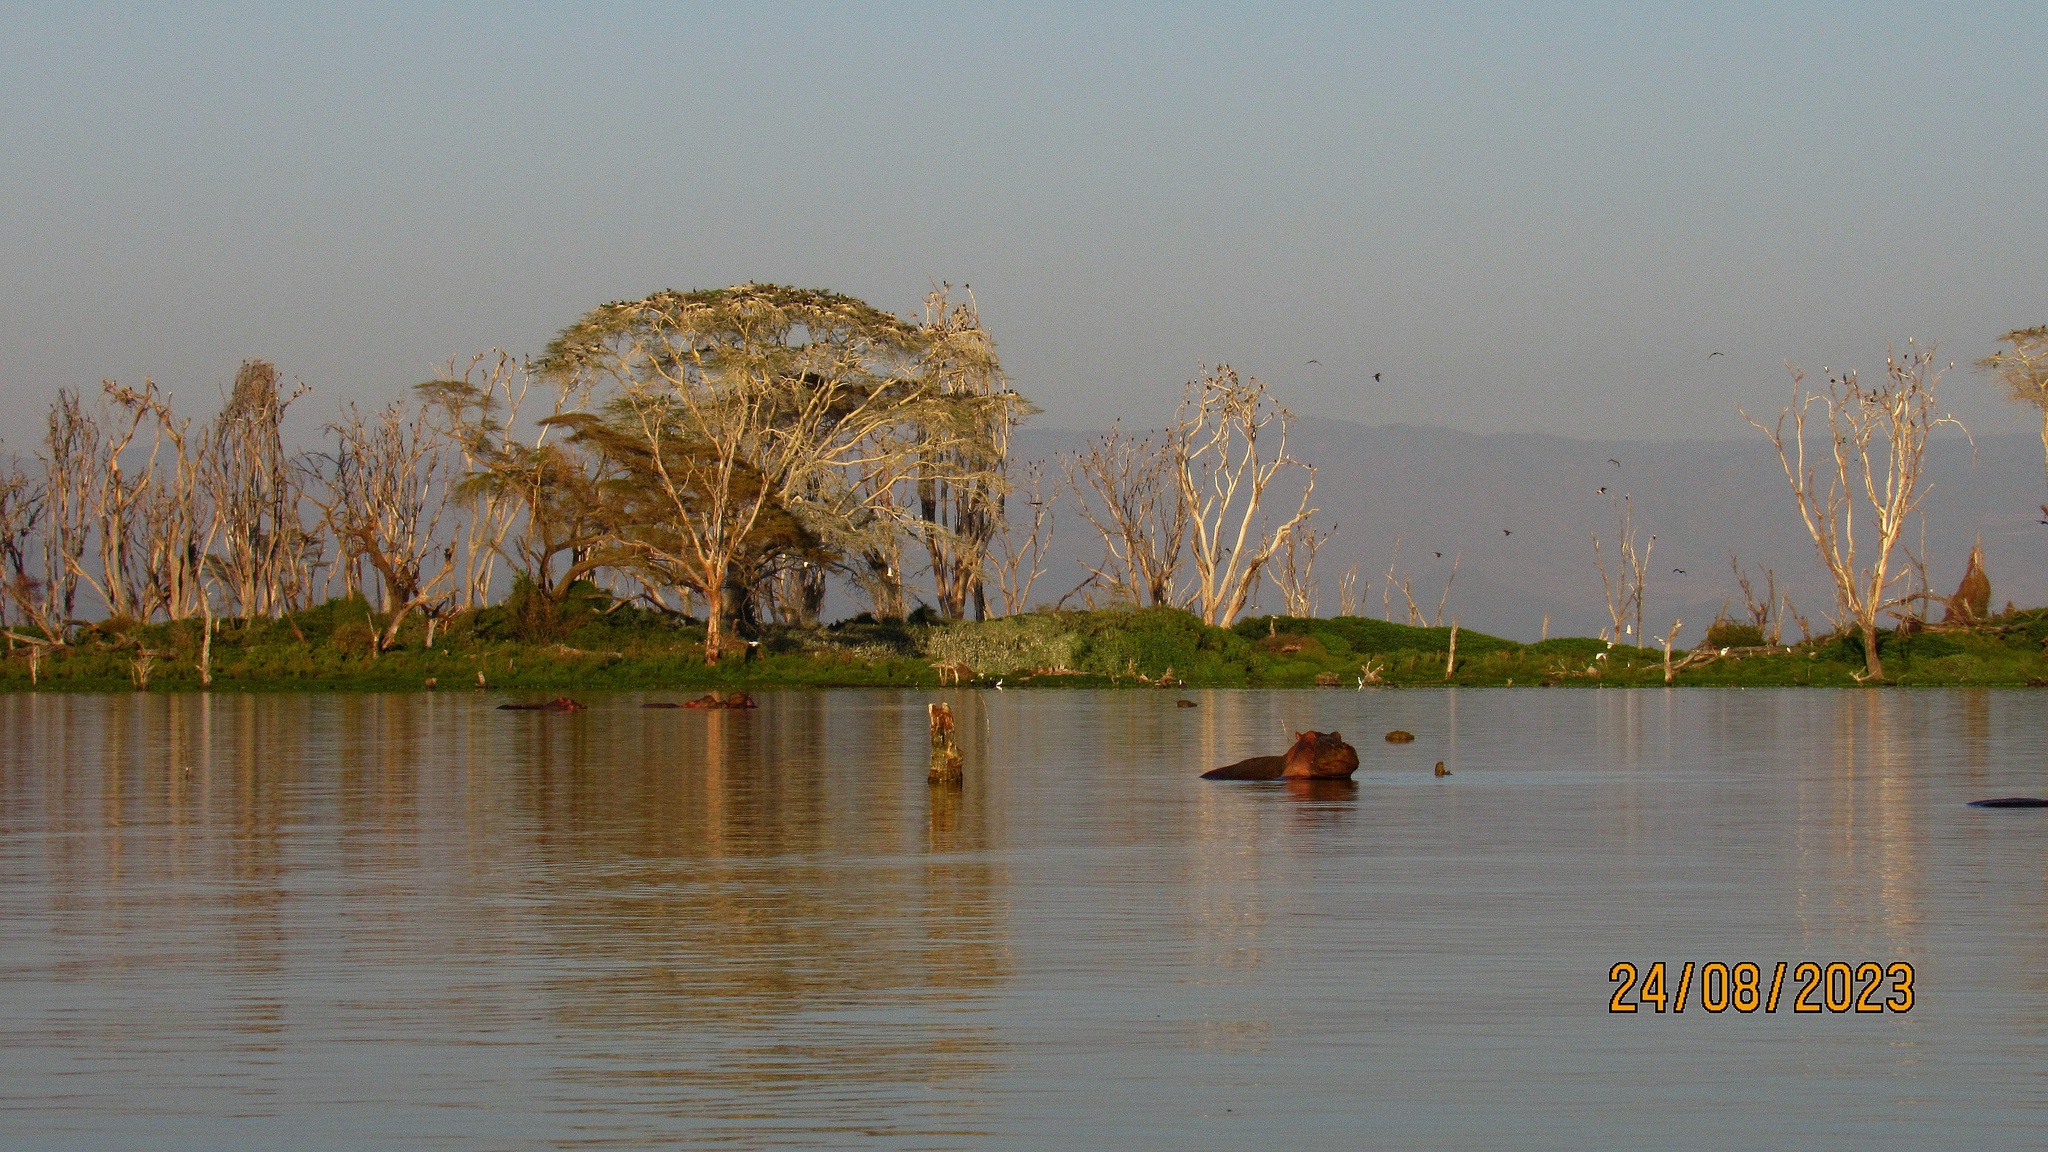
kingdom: Animalia
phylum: Chordata
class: Mammalia
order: Artiodactyla
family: Hippopotamidae
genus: Hippopotamus
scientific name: Hippopotamus amphibius
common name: Common hippopotamus
